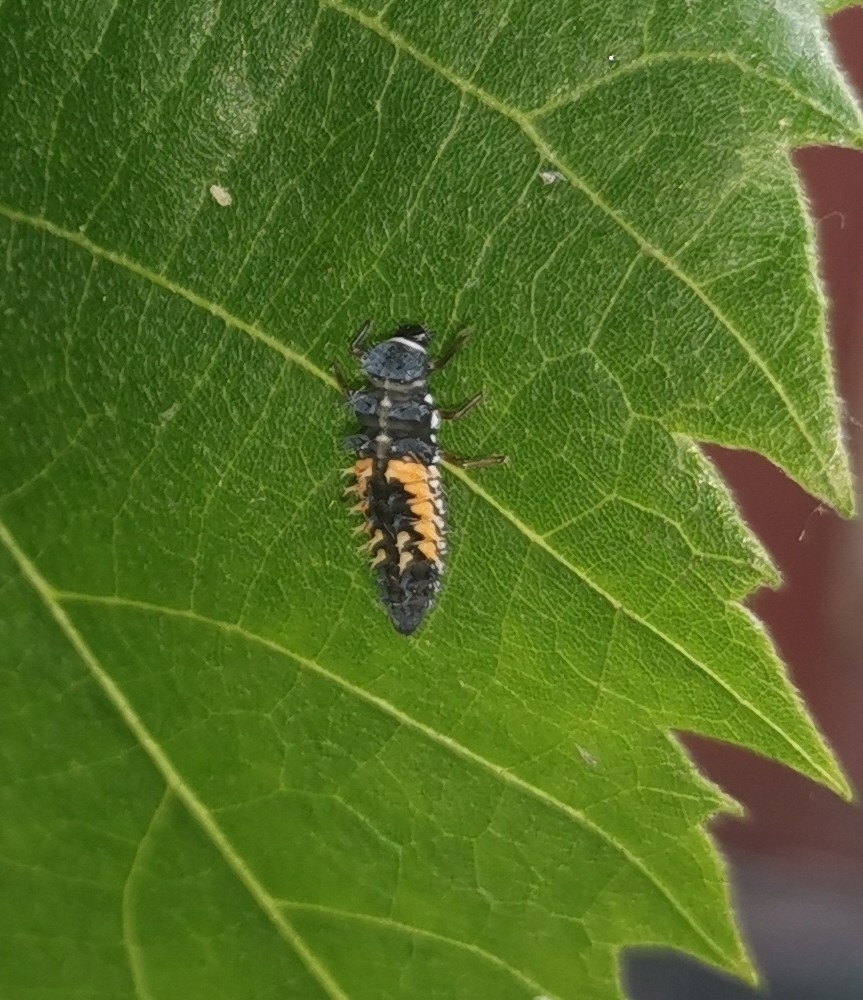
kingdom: Animalia
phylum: Arthropoda
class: Insecta
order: Coleoptera
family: Coccinellidae
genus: Harmonia
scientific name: Harmonia axyridis
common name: Harlequin ladybird
